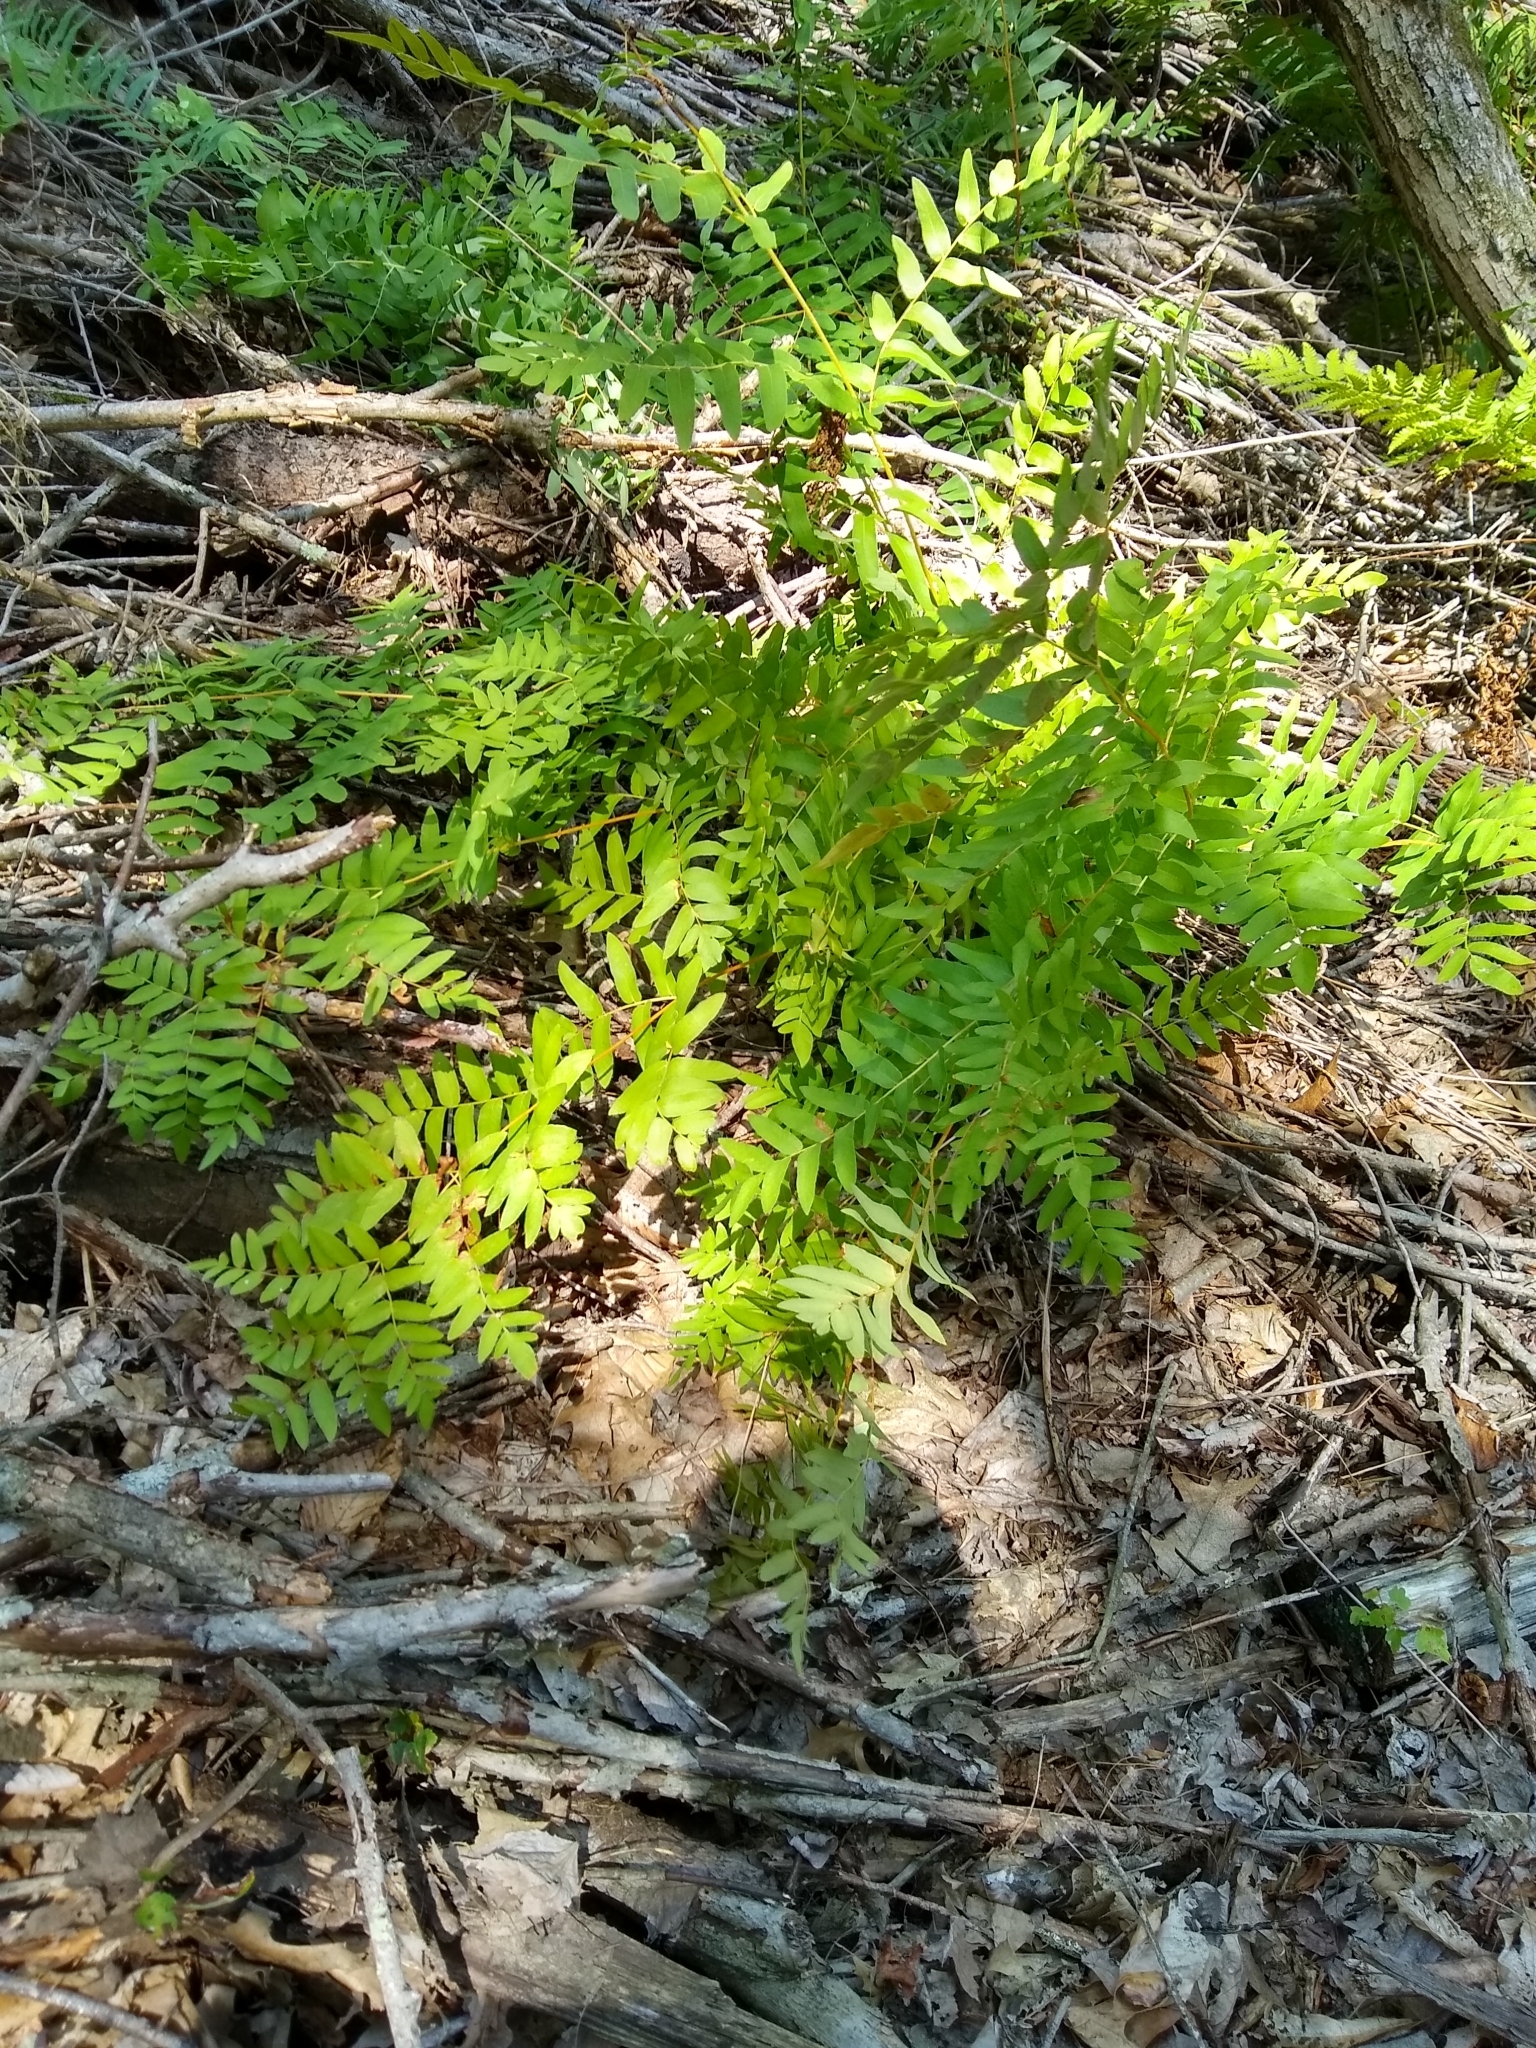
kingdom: Plantae
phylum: Tracheophyta
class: Polypodiopsida
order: Osmundales
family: Osmundaceae
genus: Osmunda
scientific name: Osmunda spectabilis
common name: American royal fern
